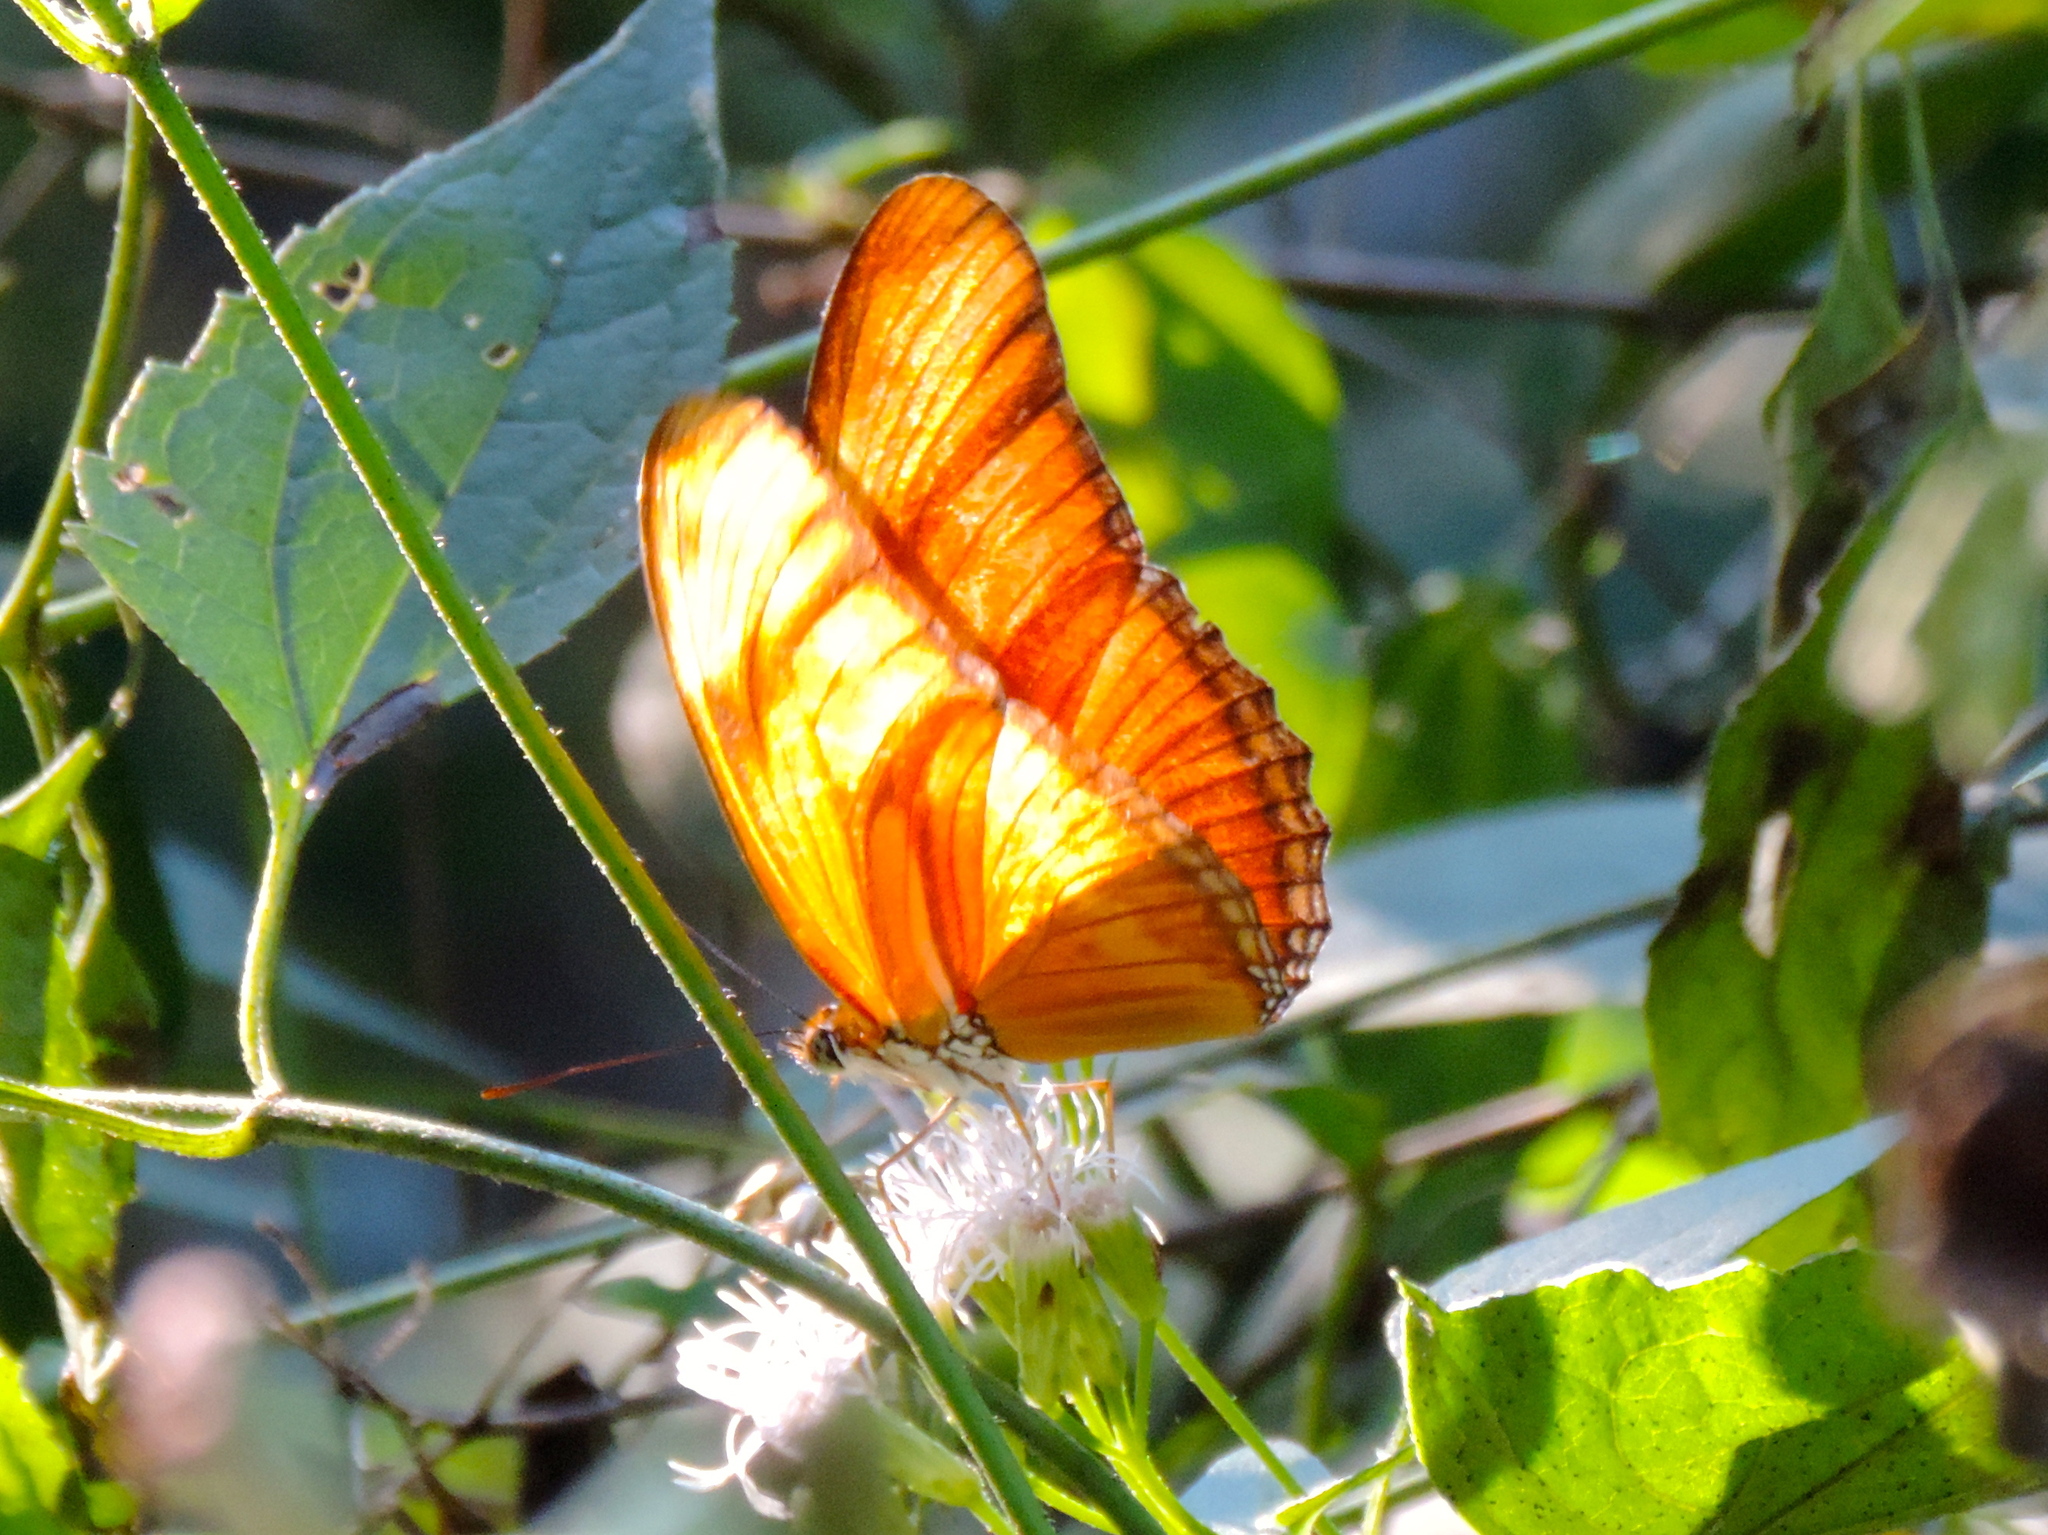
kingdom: Animalia
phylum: Arthropoda
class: Insecta
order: Lepidoptera
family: Nymphalidae
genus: Dryas
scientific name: Dryas iulia
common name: Flambeau
